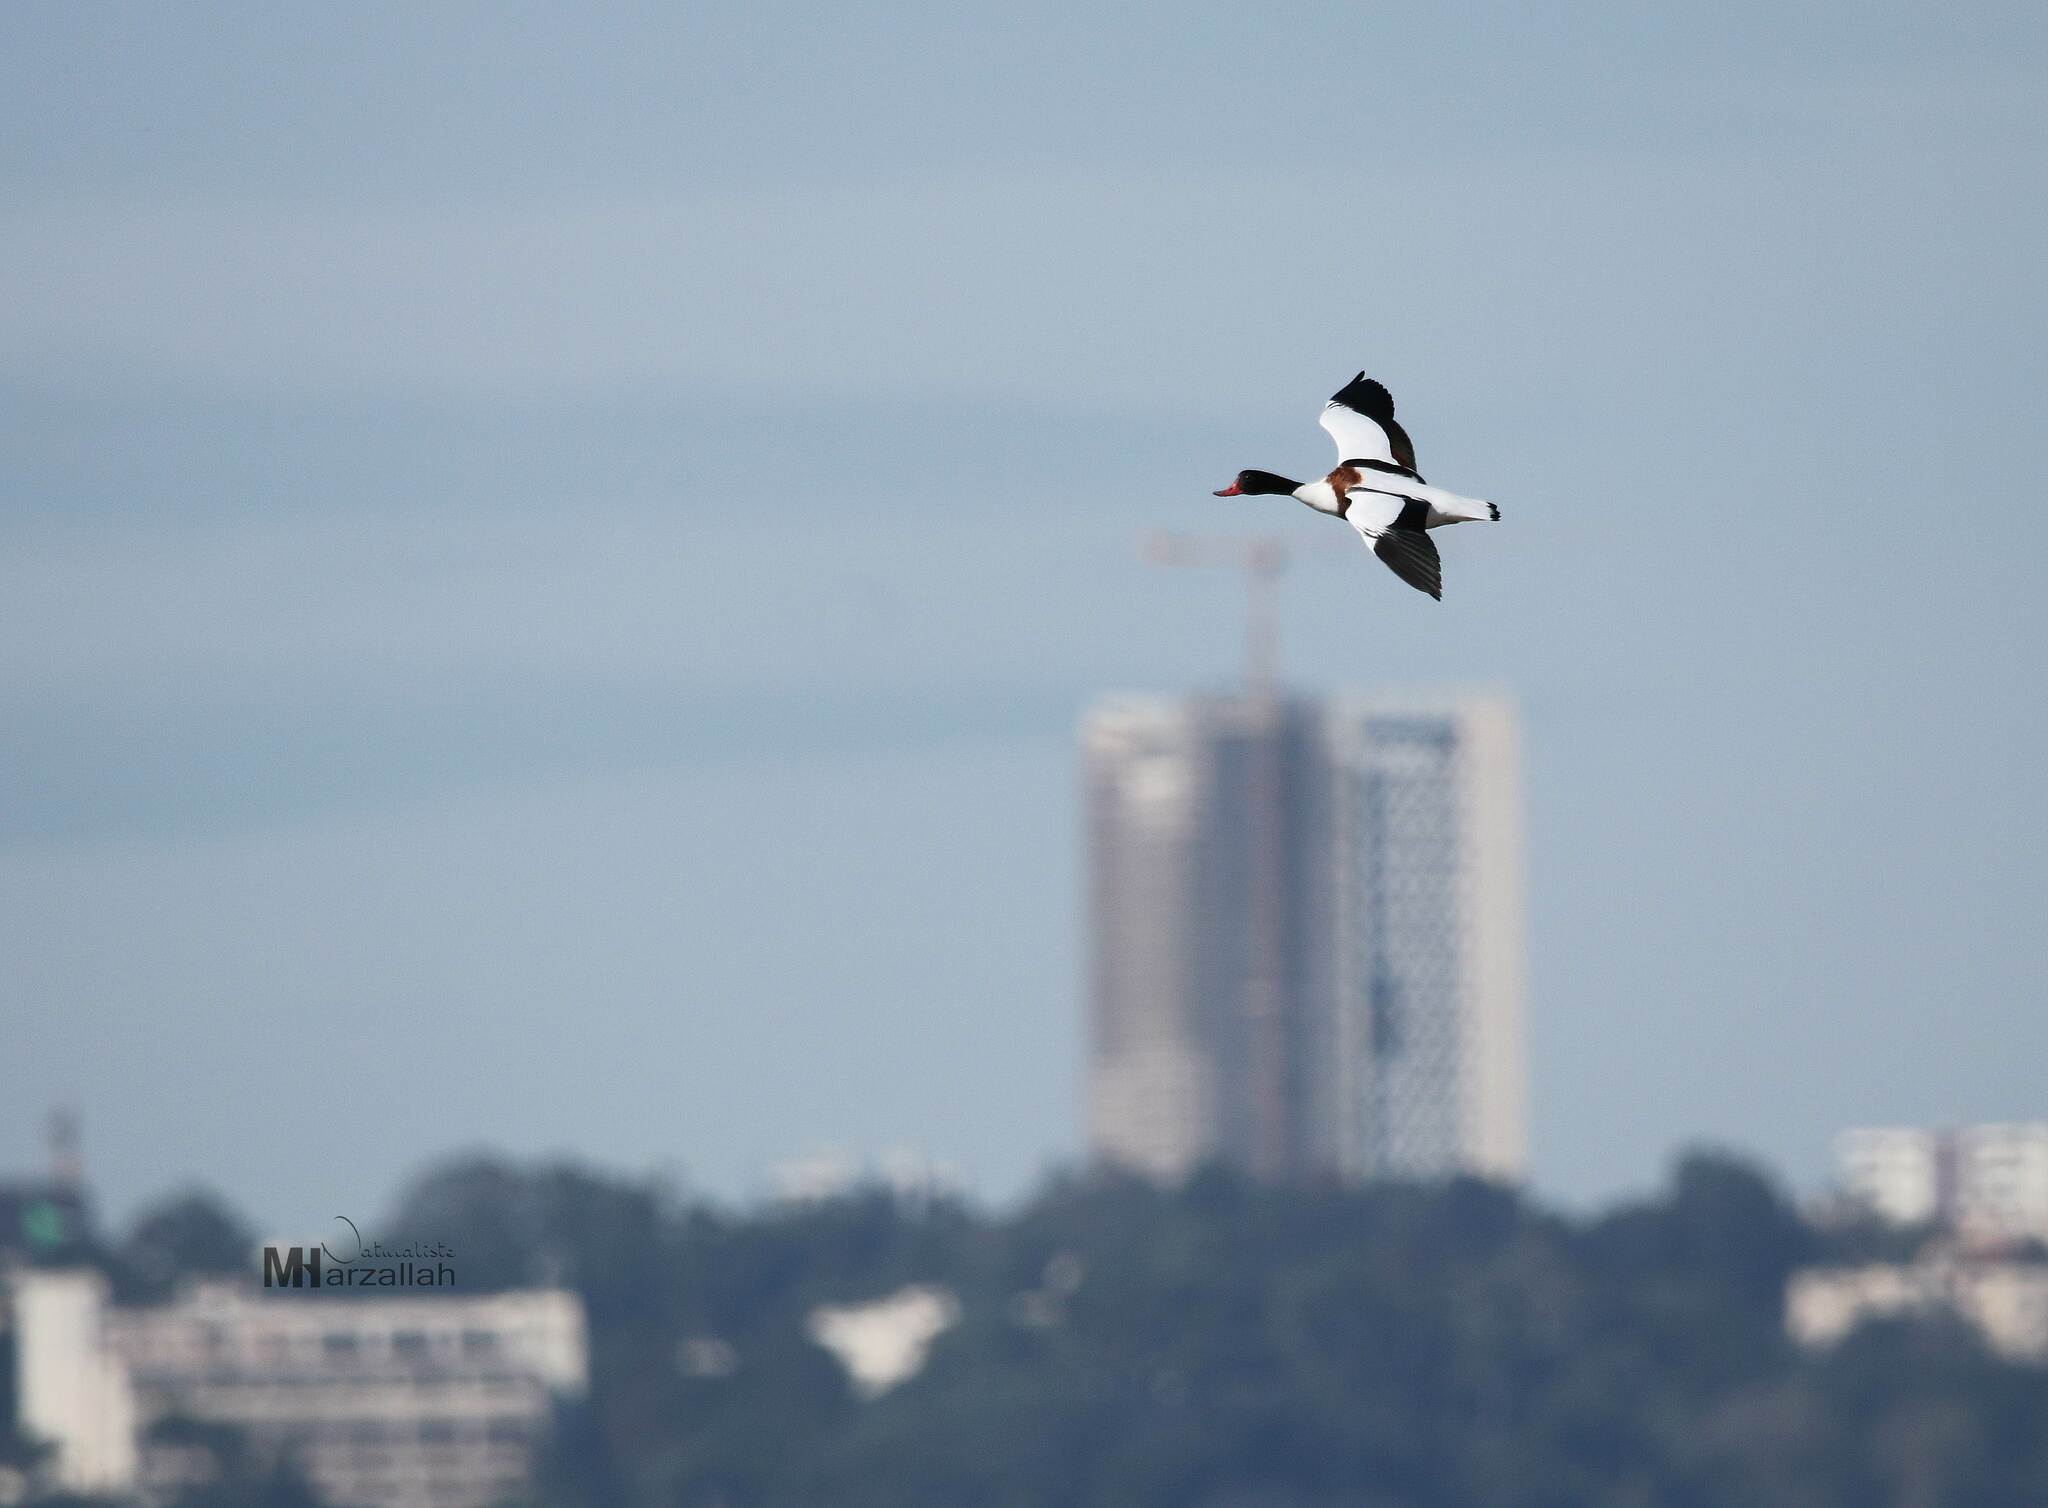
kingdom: Animalia
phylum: Chordata
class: Aves
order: Anseriformes
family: Anatidae
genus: Tadorna
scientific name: Tadorna tadorna
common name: Common shelduck
